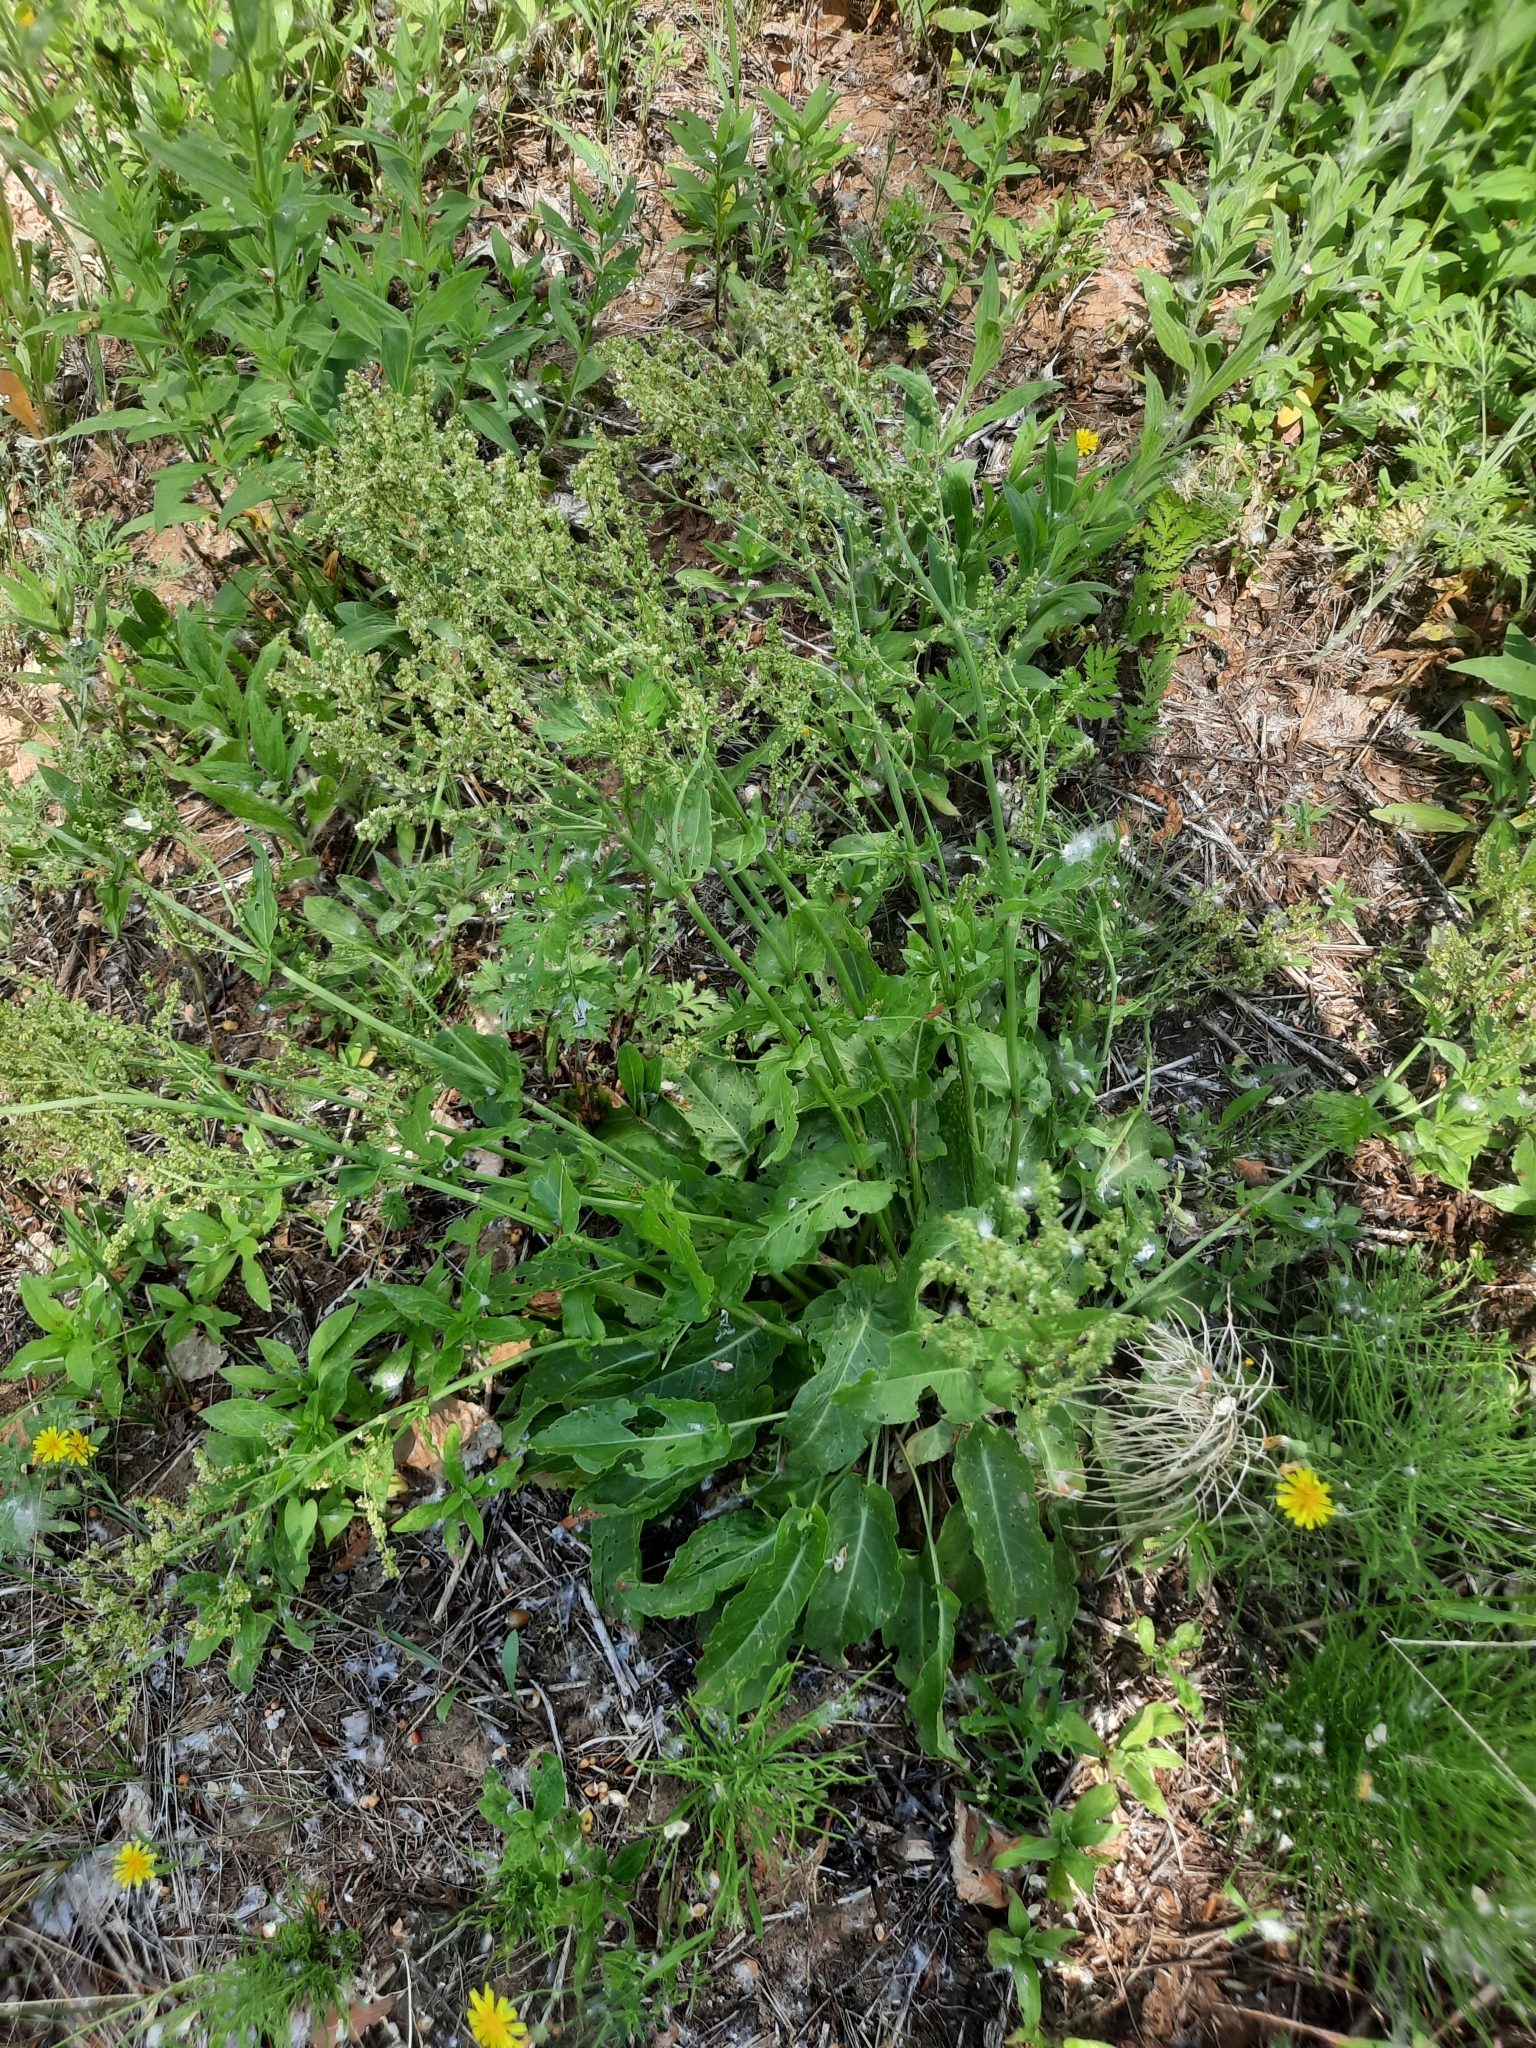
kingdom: Plantae
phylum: Tracheophyta
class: Magnoliopsida
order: Caryophyllales
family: Polygonaceae
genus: Rumex
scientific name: Rumex thyrsiflorus
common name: Garden sorrel
